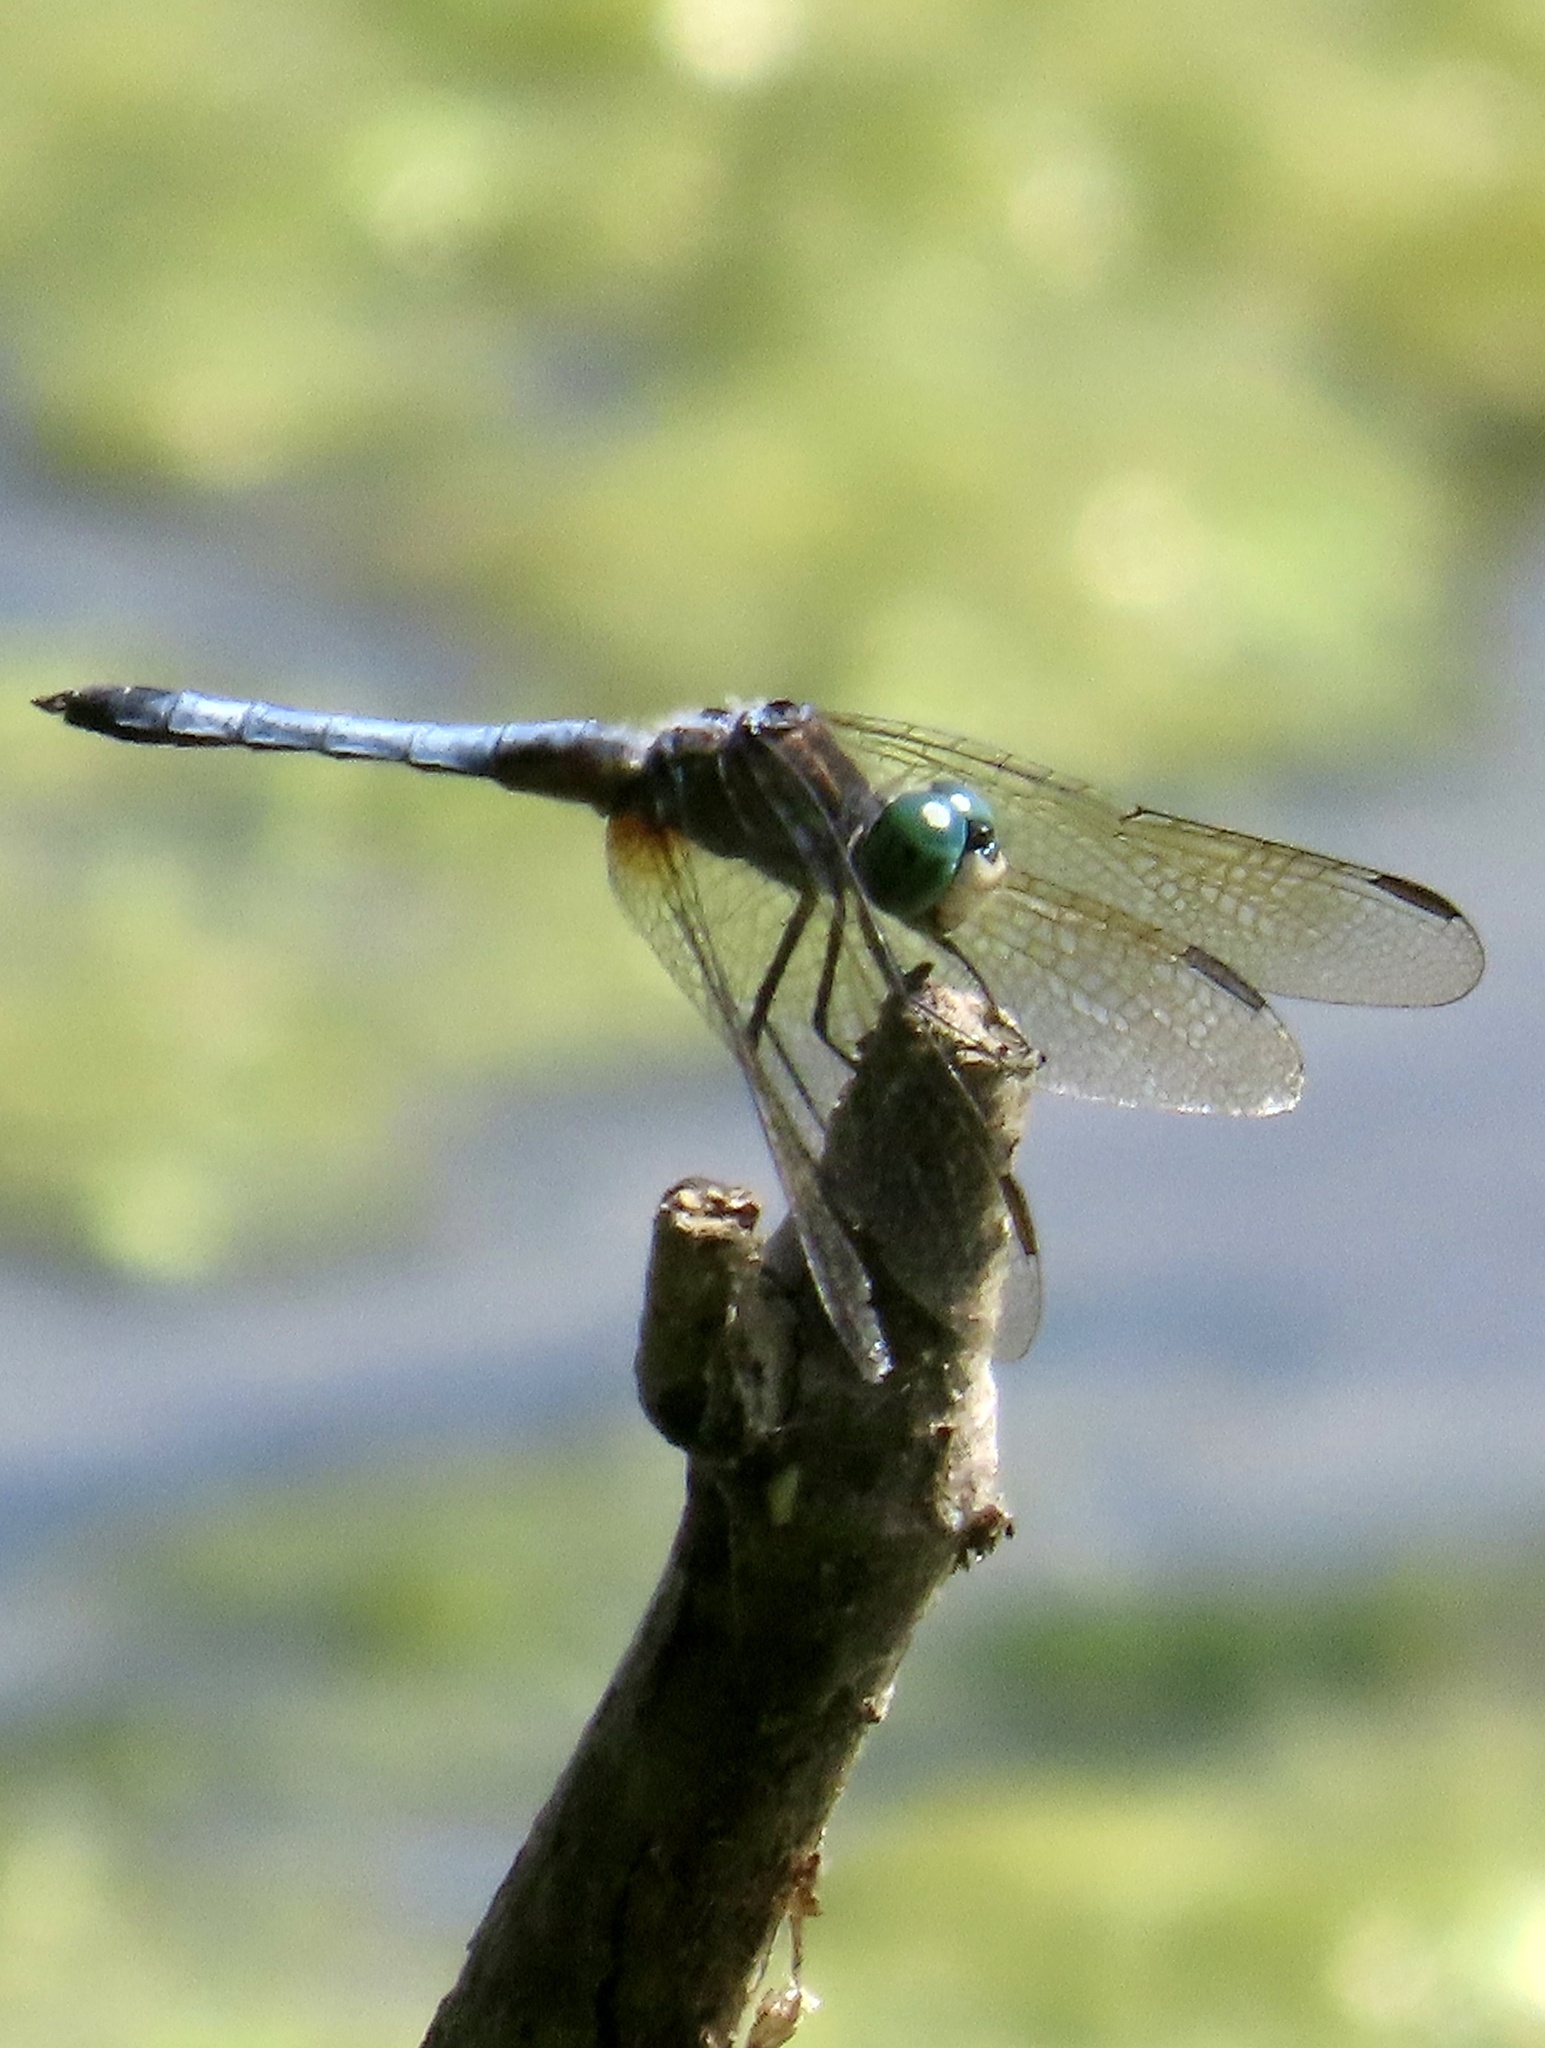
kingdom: Animalia
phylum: Arthropoda
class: Insecta
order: Odonata
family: Libellulidae
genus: Pachydiplax
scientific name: Pachydiplax longipennis
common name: Blue dasher
